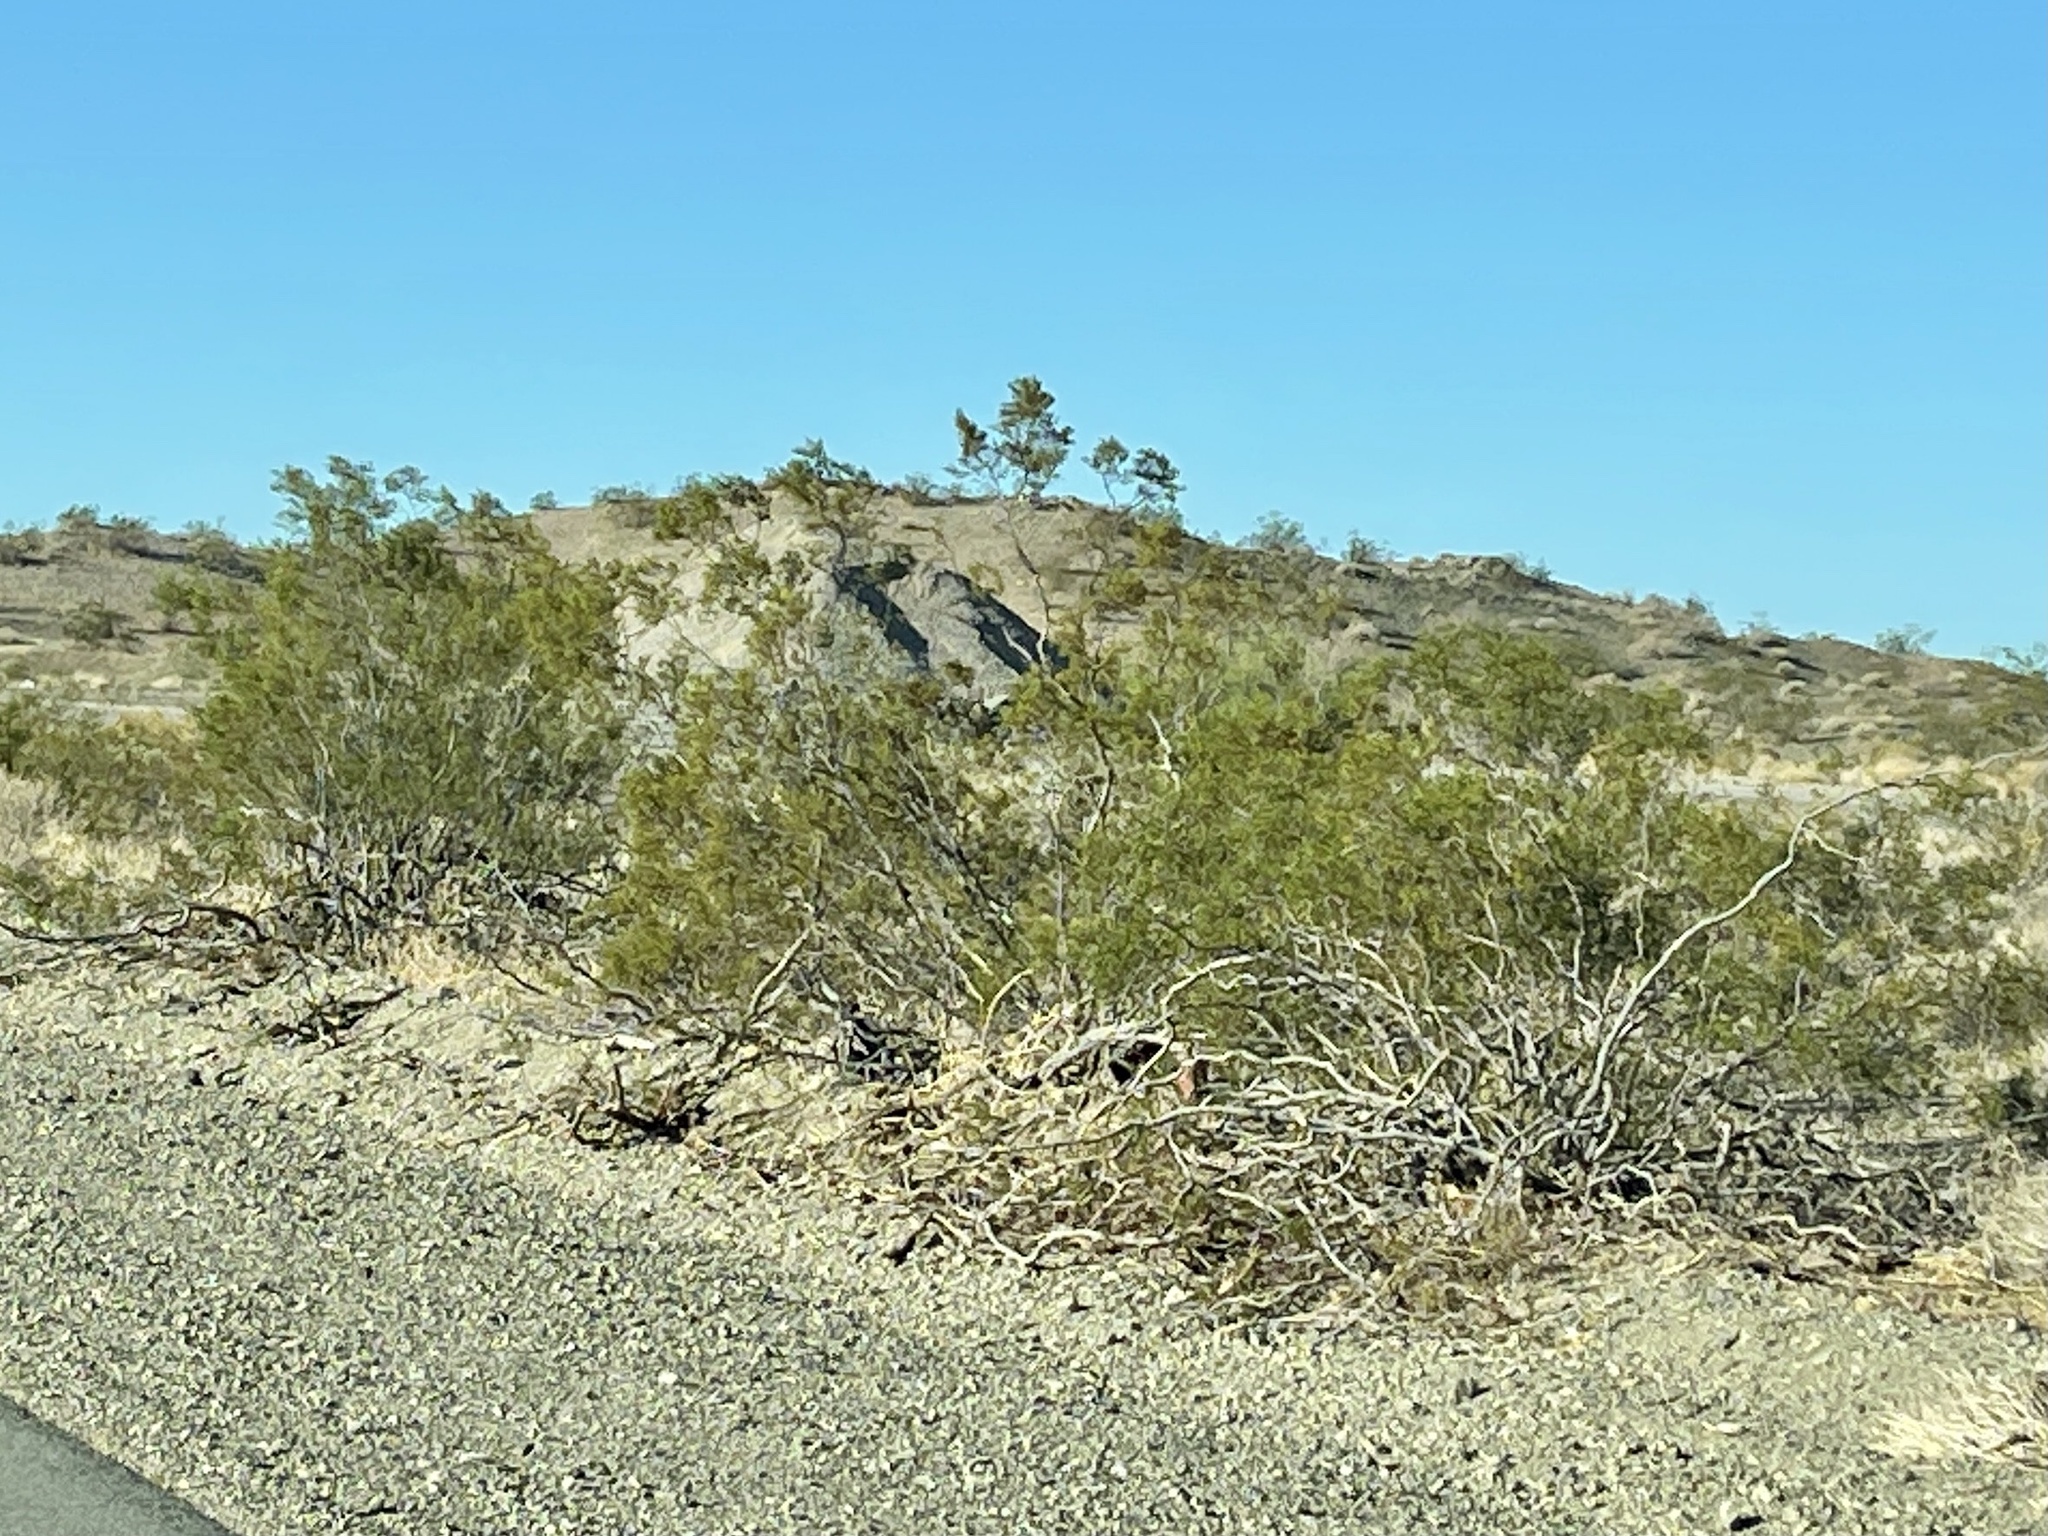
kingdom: Plantae
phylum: Tracheophyta
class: Magnoliopsida
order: Zygophyllales
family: Zygophyllaceae
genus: Larrea
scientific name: Larrea tridentata
